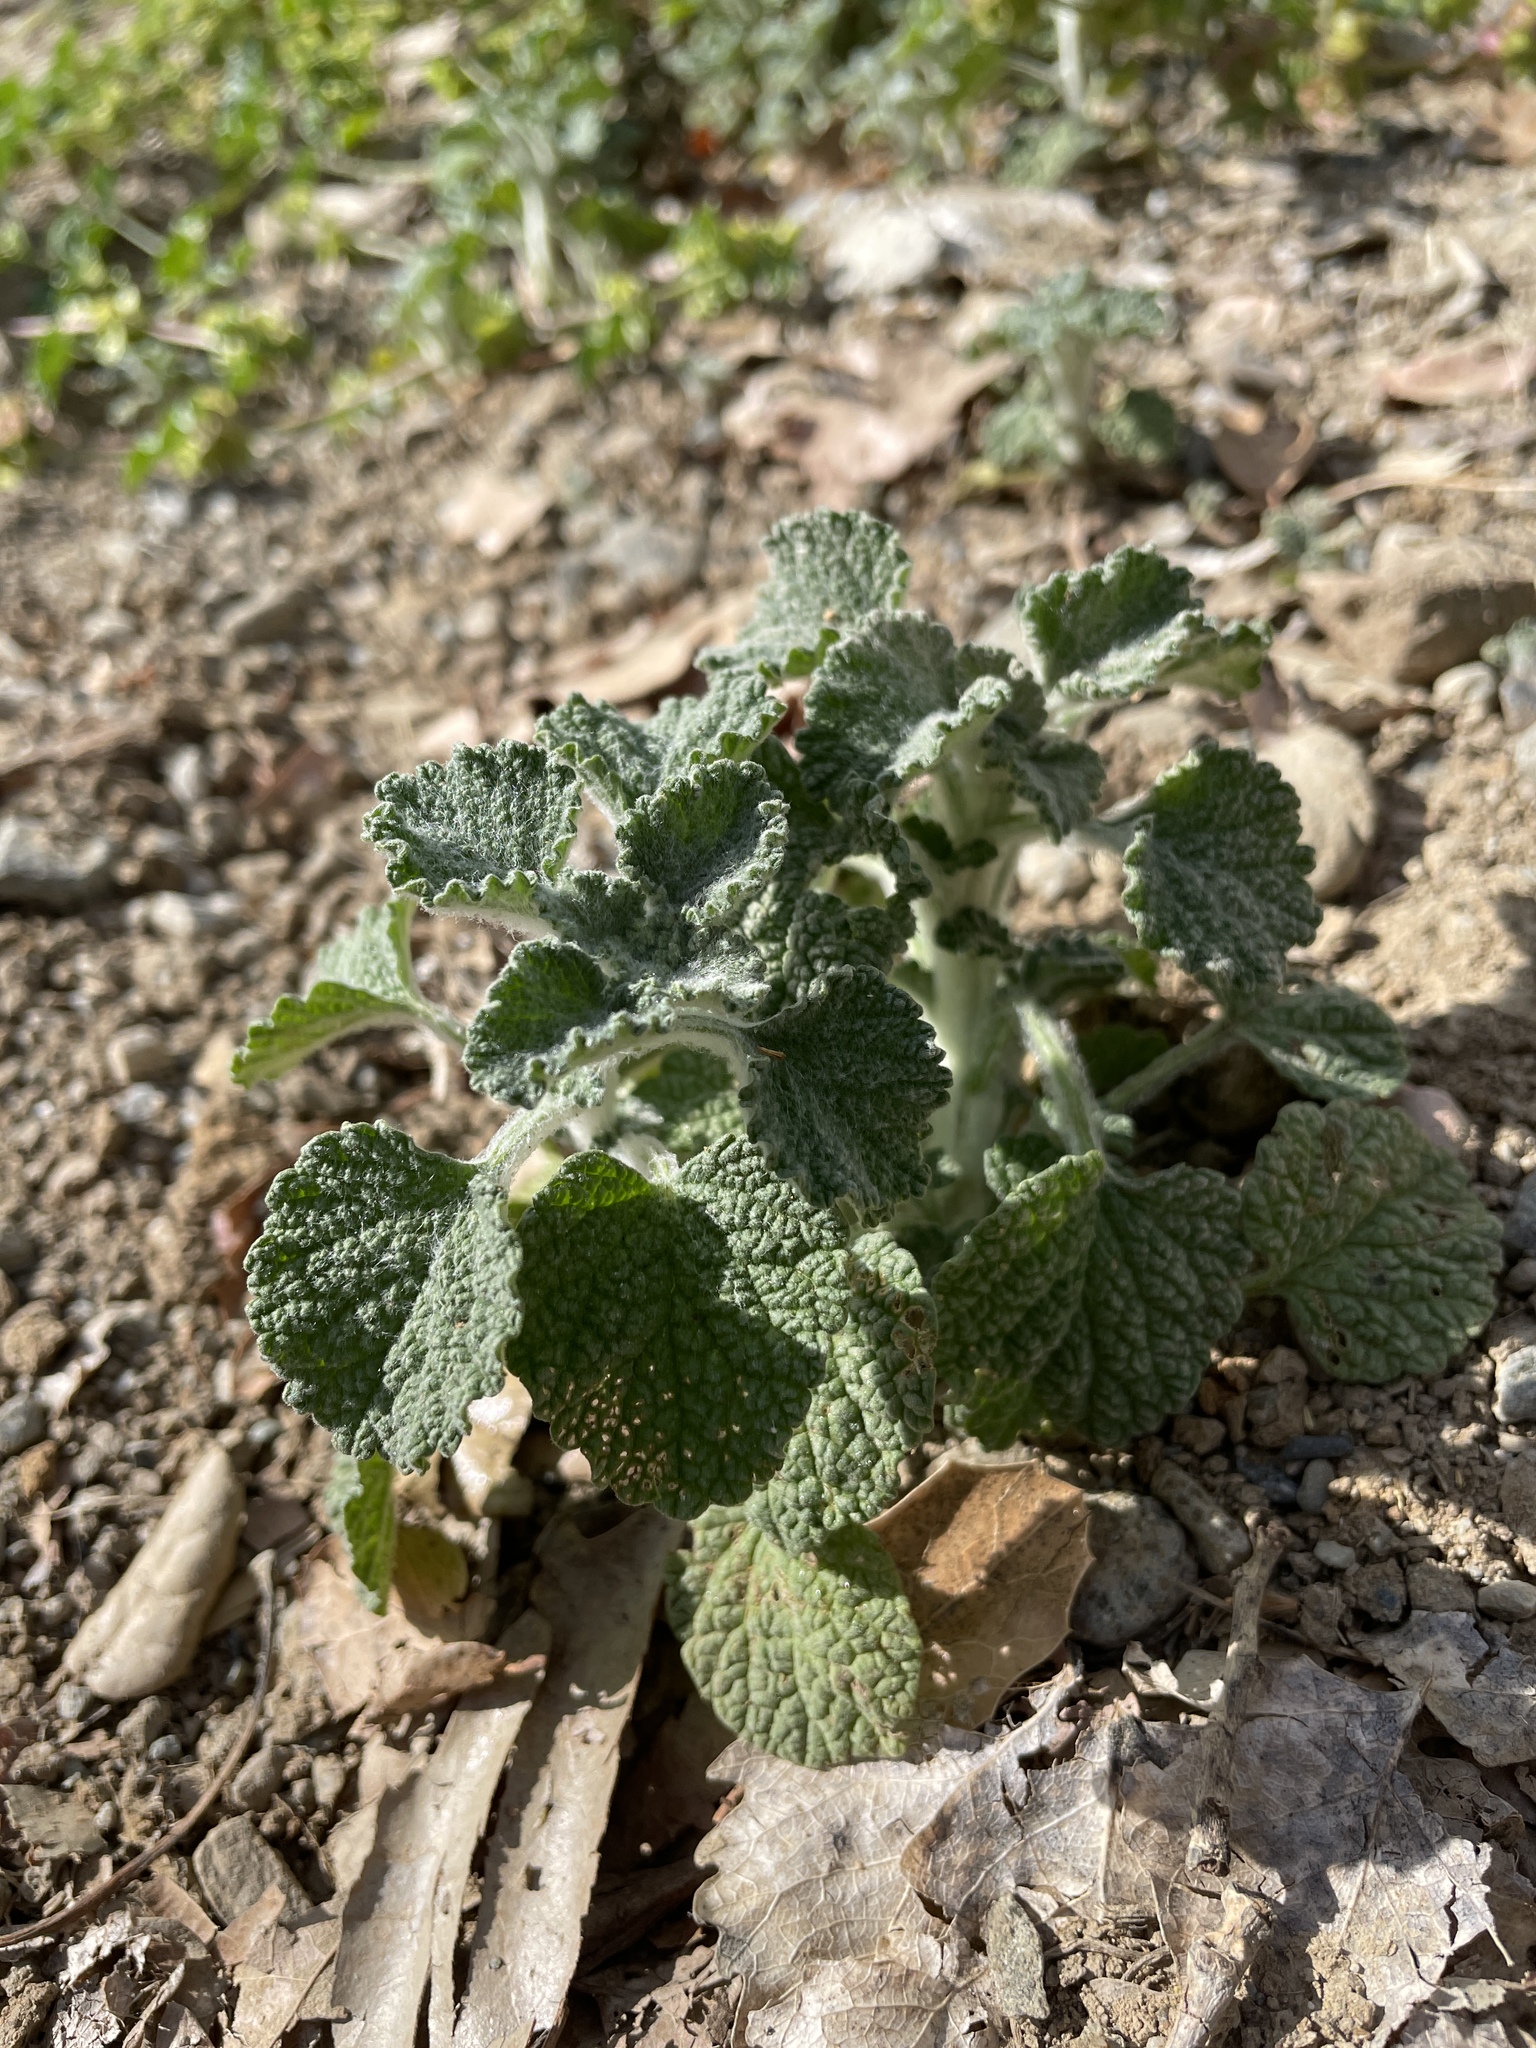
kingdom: Plantae
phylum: Tracheophyta
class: Magnoliopsida
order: Lamiales
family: Lamiaceae
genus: Marrubium
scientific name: Marrubium vulgare
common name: Horehound
